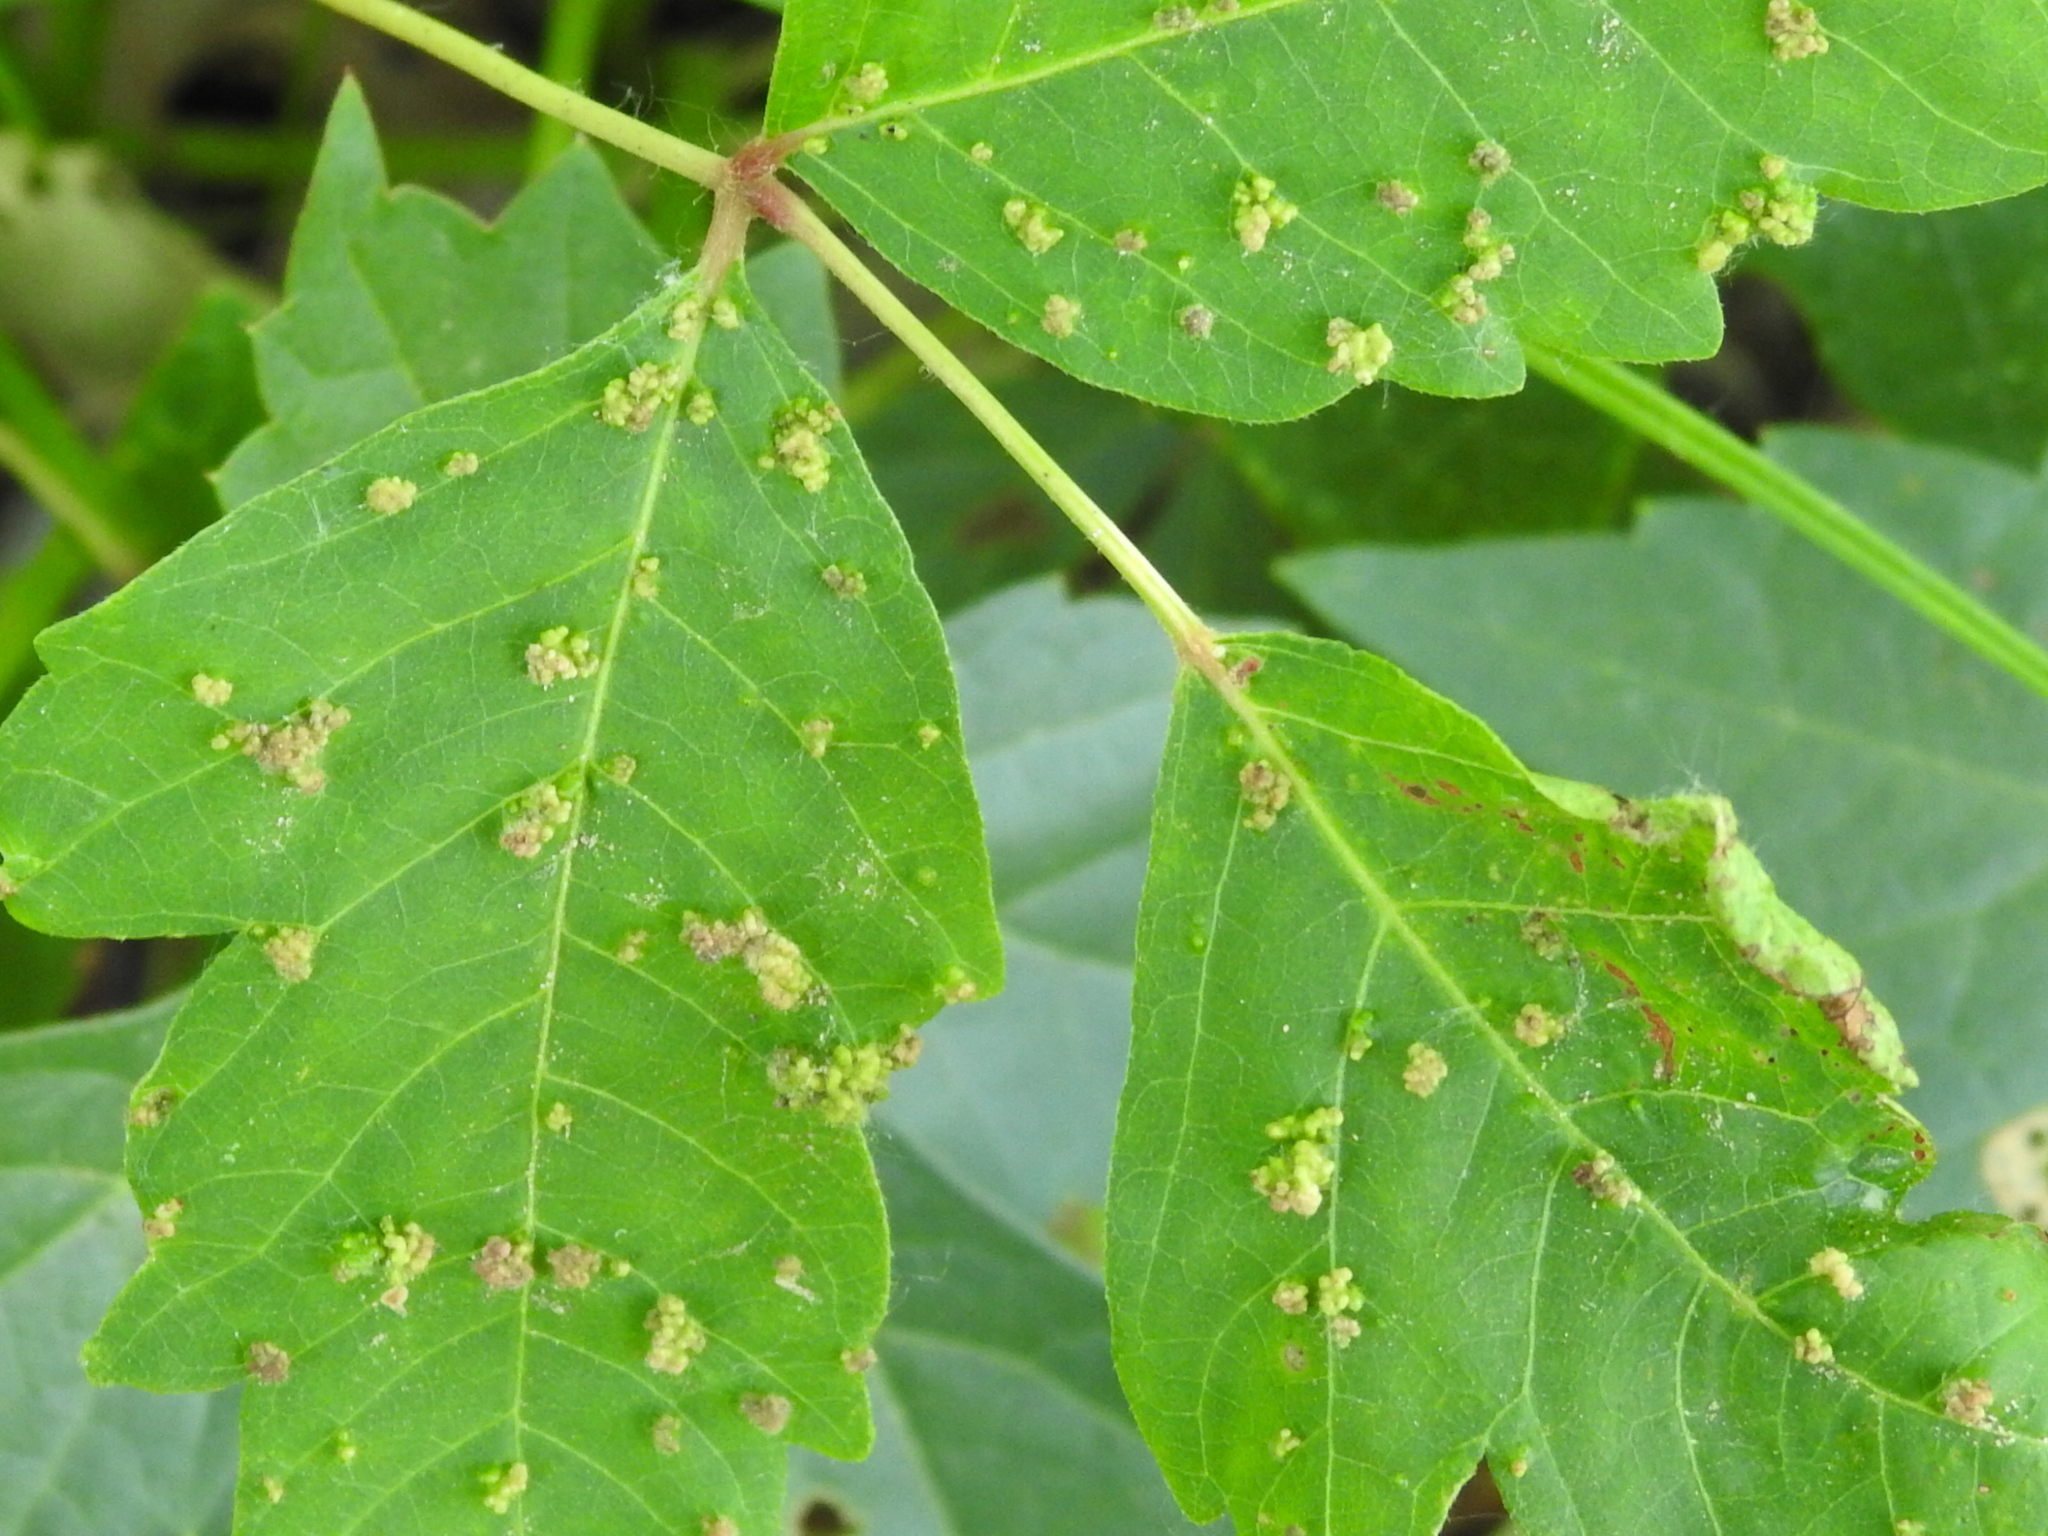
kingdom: Animalia
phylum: Arthropoda
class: Arachnida
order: Trombidiformes
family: Eriophyidae
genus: Aculops
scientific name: Aculops
